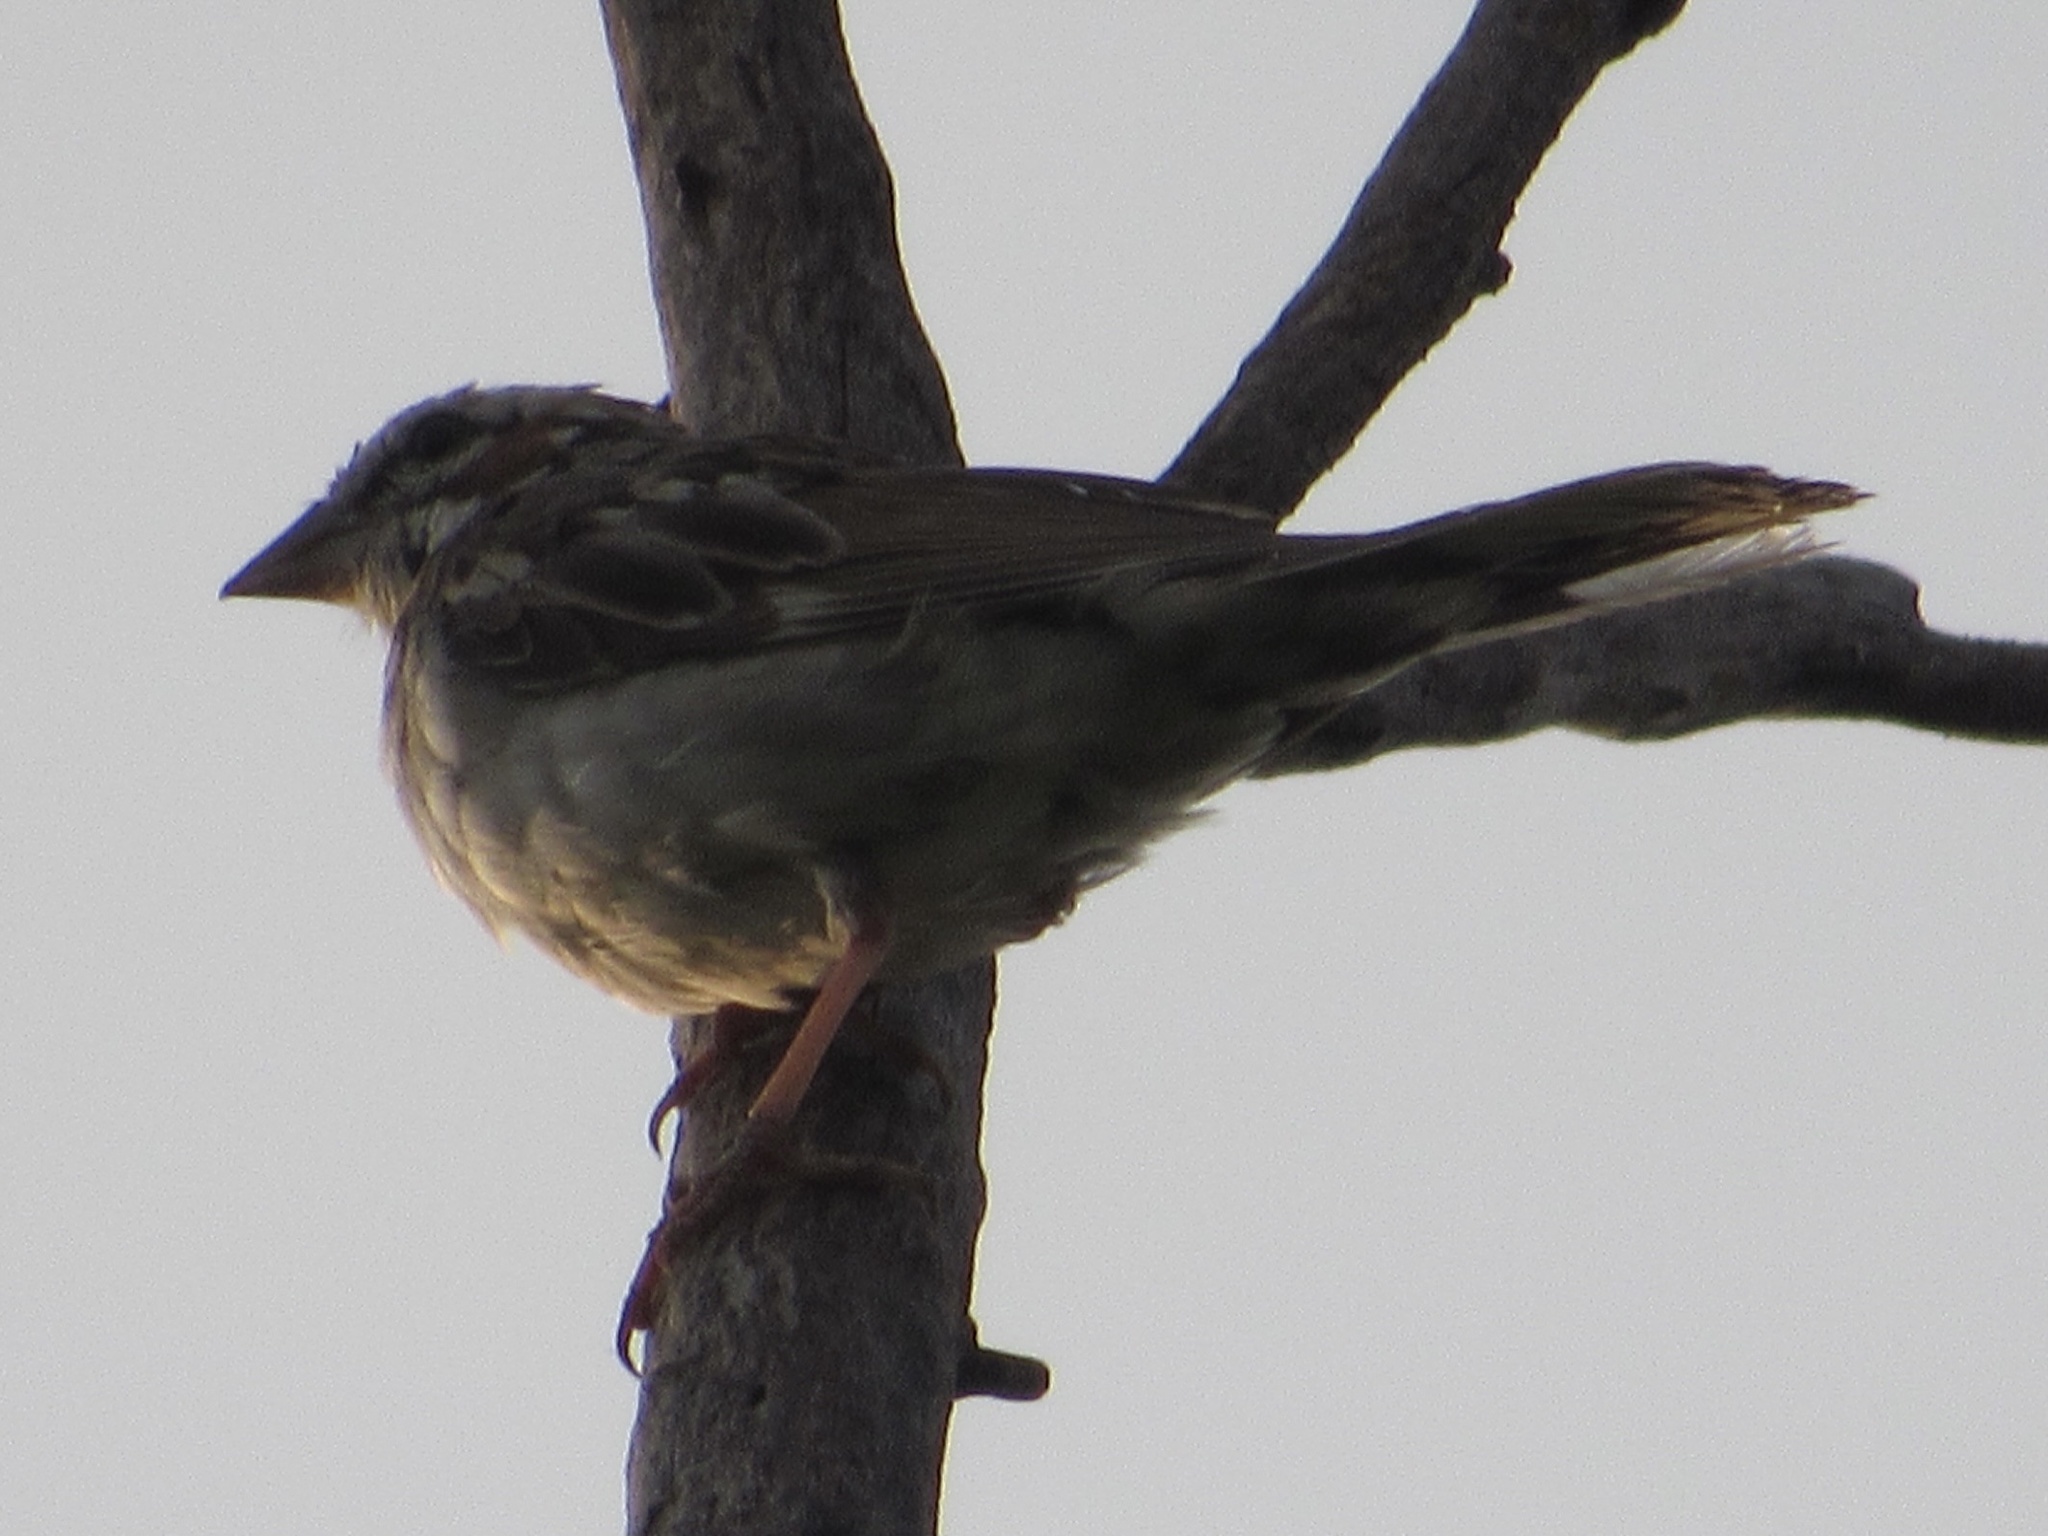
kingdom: Animalia
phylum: Chordata
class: Aves
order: Passeriformes
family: Passerellidae
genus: Chondestes
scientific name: Chondestes grammacus
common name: Lark sparrow
